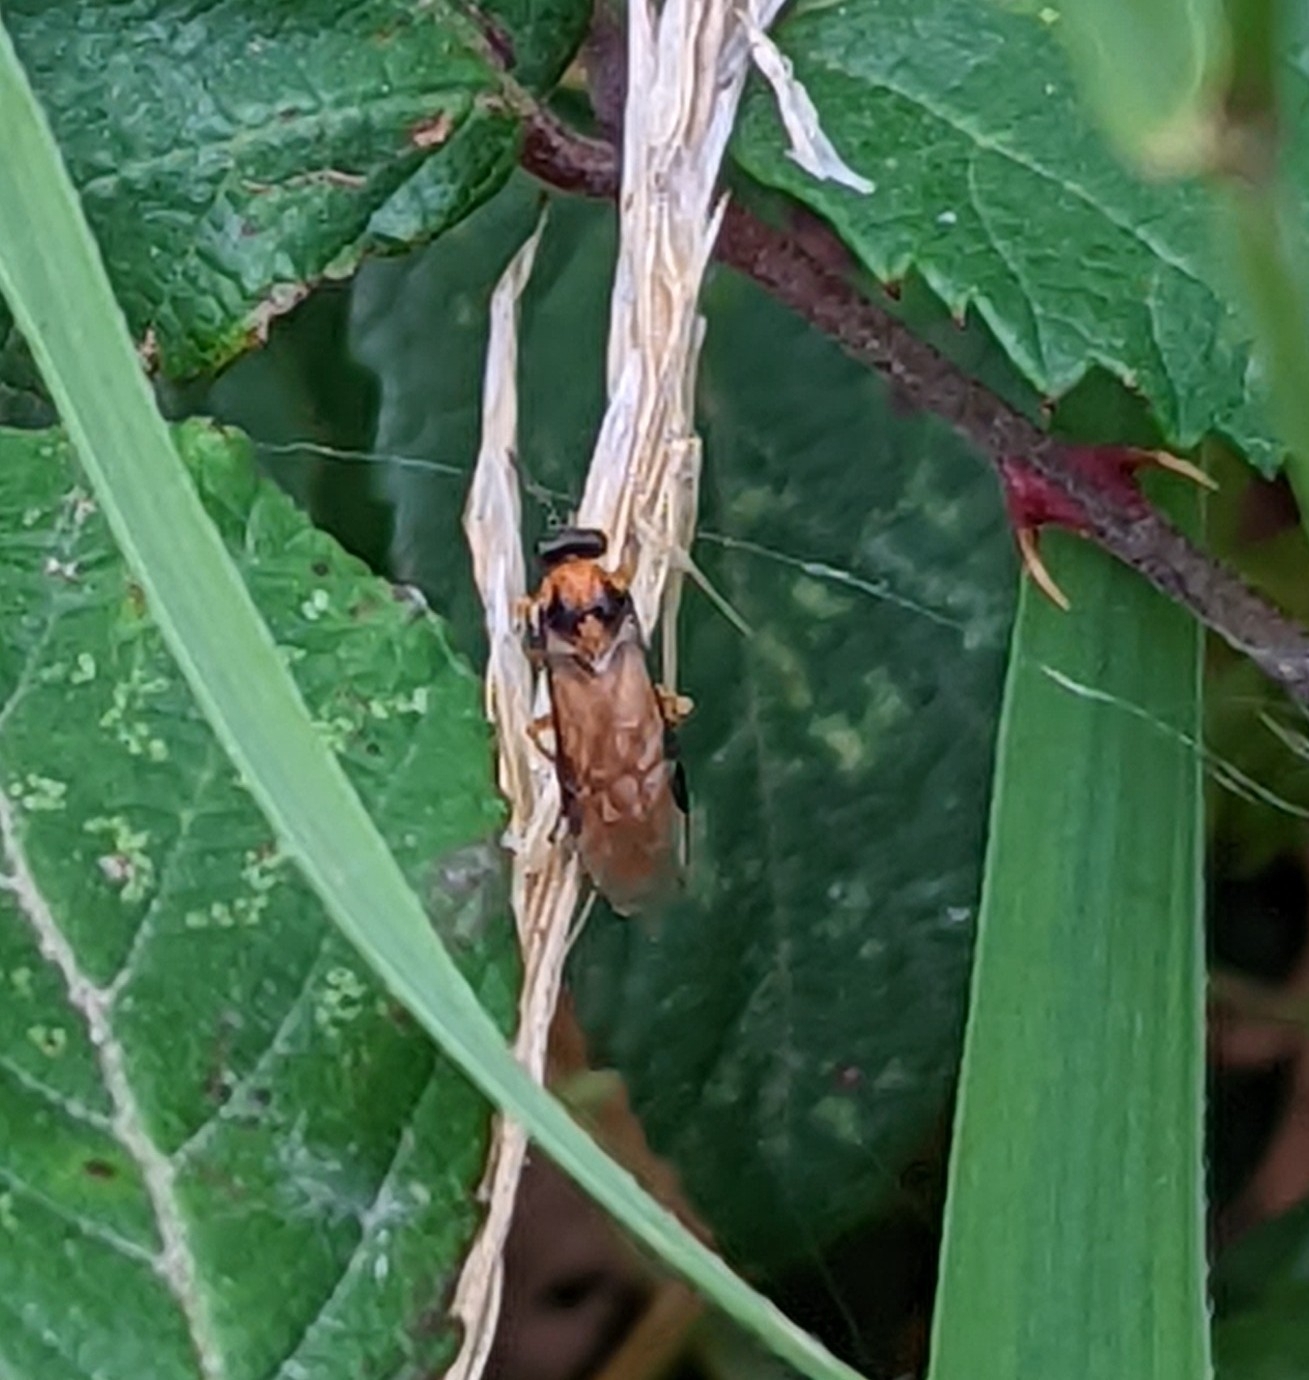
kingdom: Animalia
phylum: Arthropoda
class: Insecta
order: Hymenoptera
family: Tenthredinidae
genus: Athalia
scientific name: Athalia rosae
